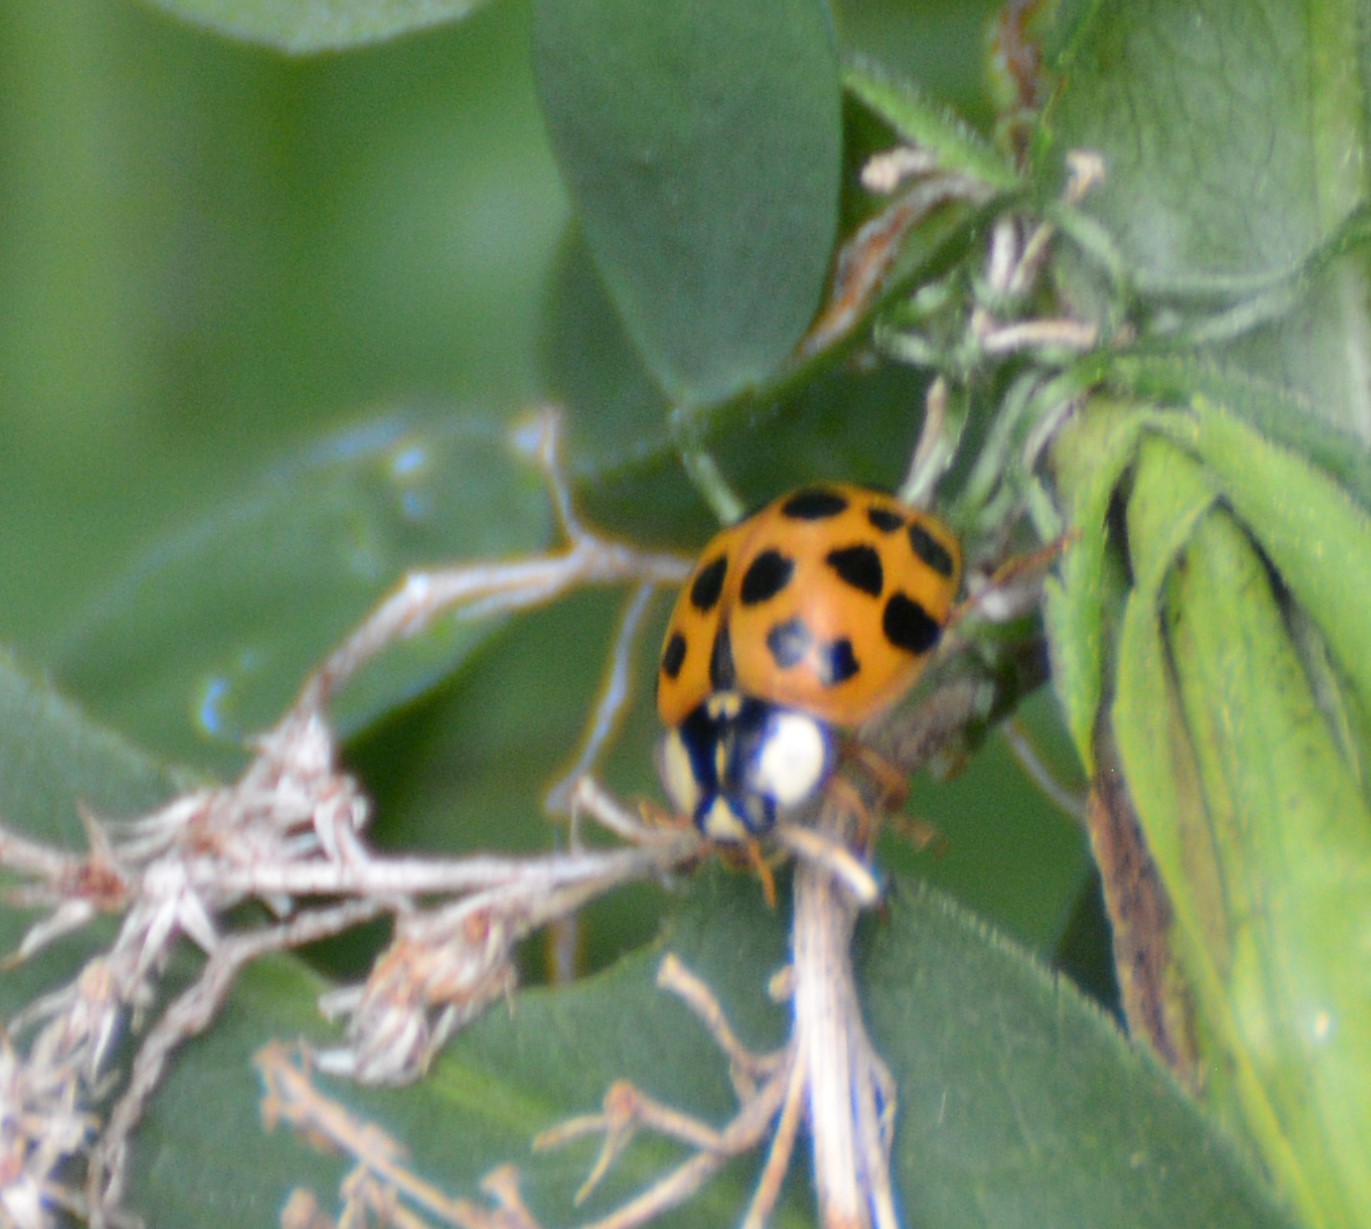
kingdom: Animalia
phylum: Arthropoda
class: Insecta
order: Coleoptera
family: Coccinellidae
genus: Harmonia
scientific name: Harmonia axyridis
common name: Harlequin ladybird
